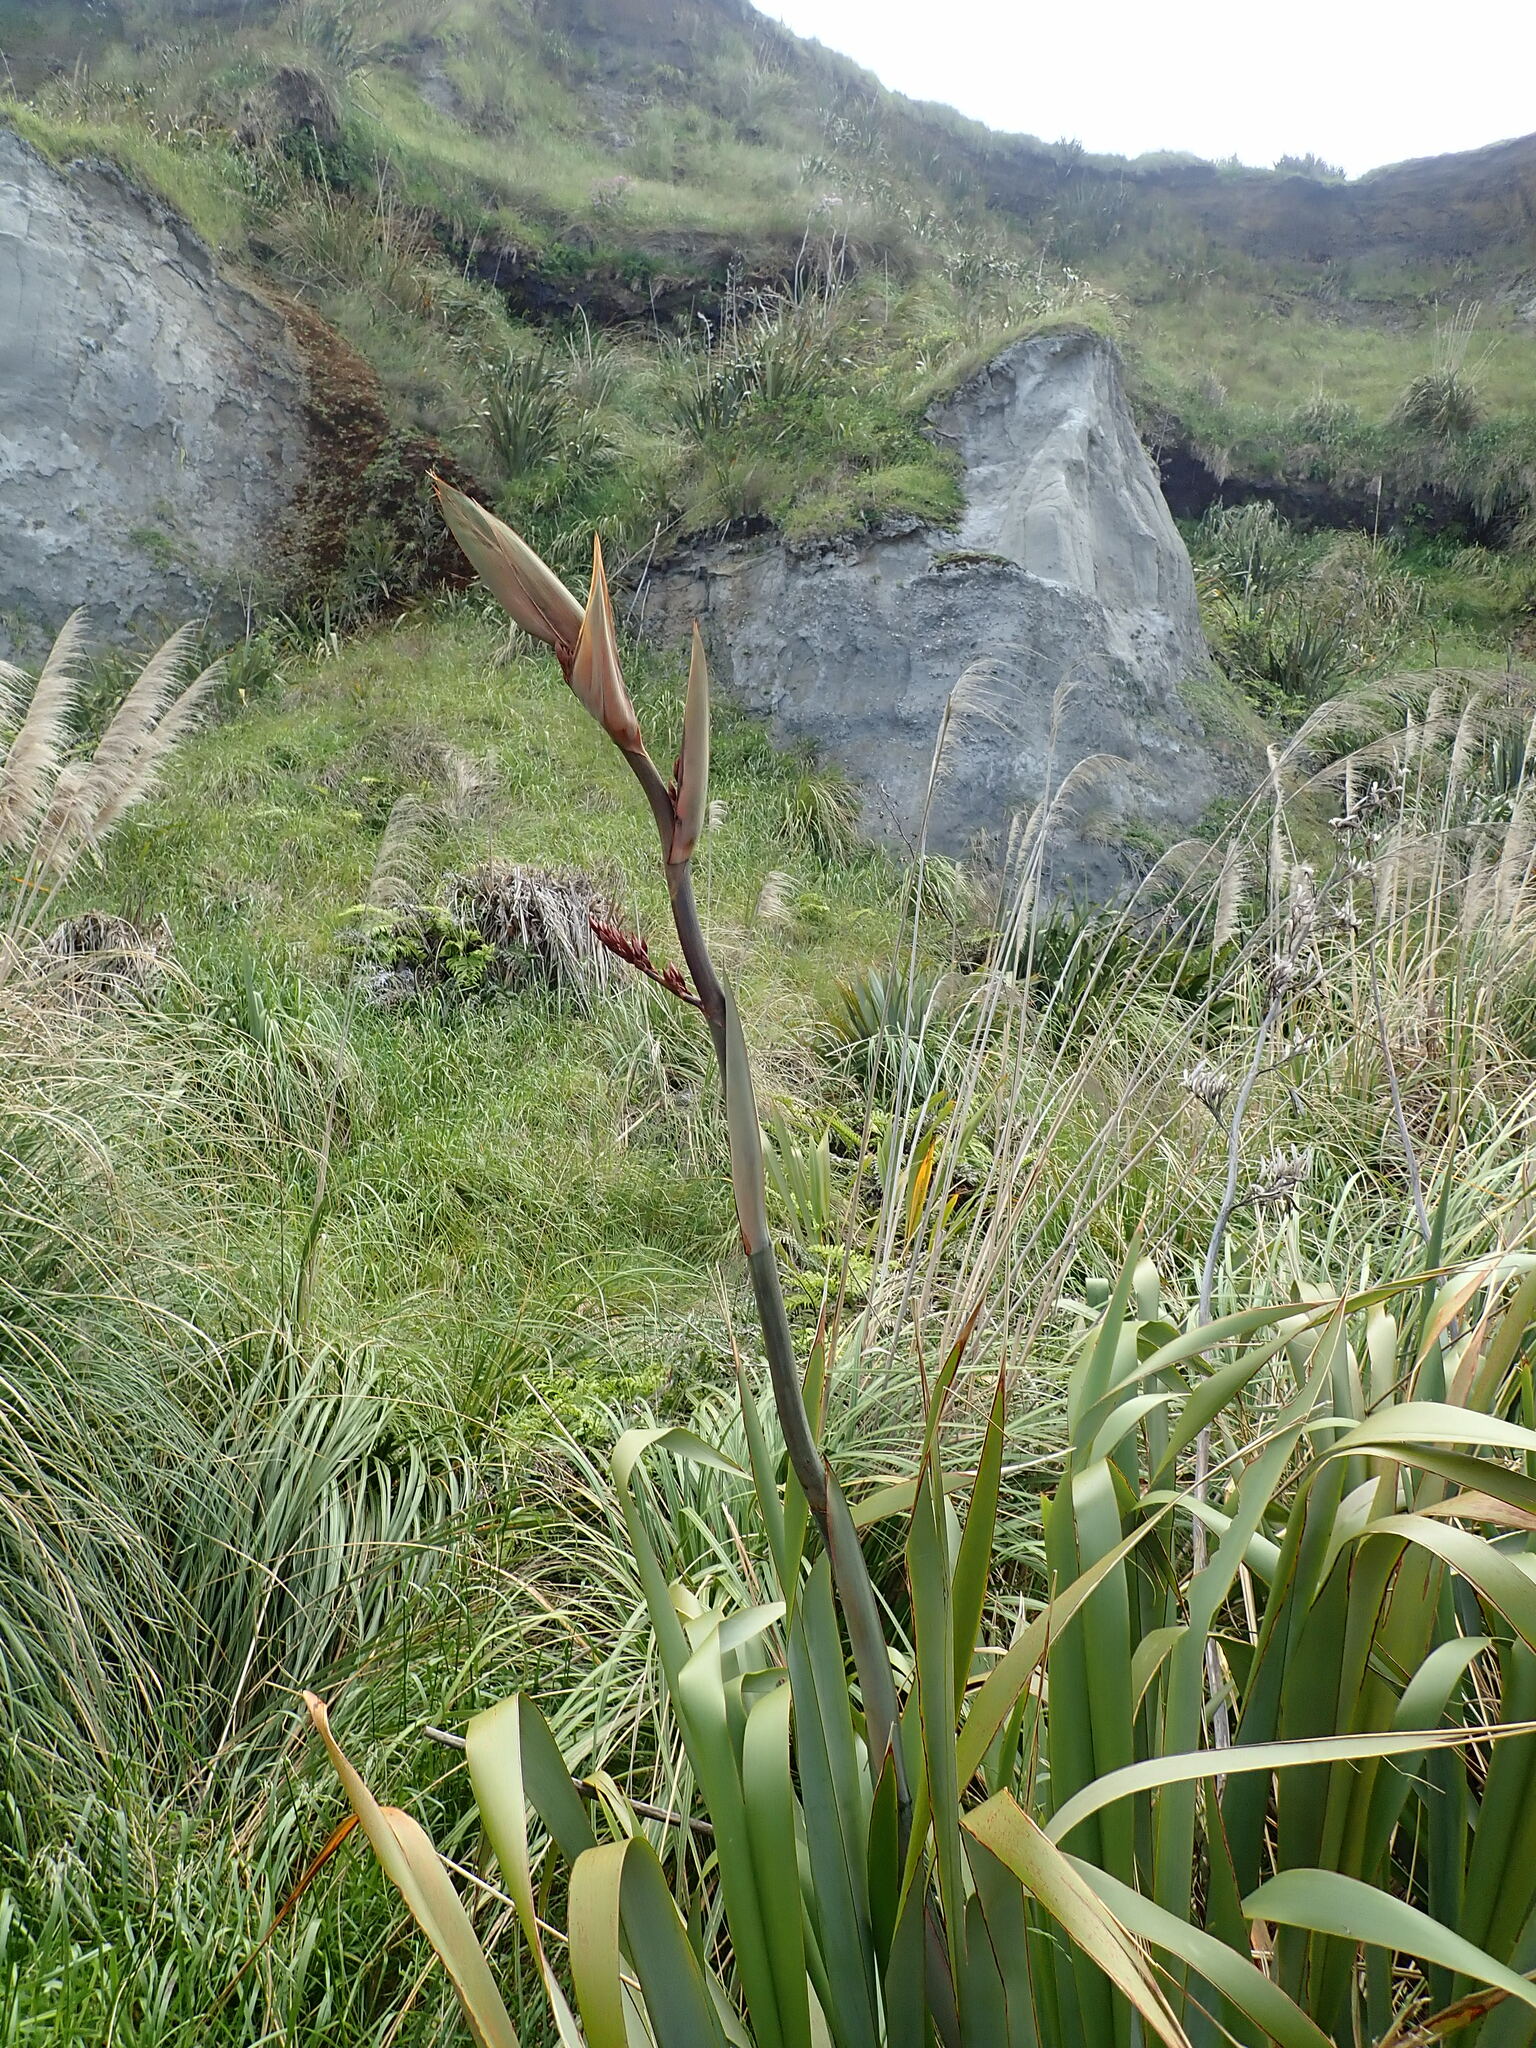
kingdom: Plantae
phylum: Tracheophyta
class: Liliopsida
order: Asparagales
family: Asphodelaceae
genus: Phormium
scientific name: Phormium tenax
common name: New zealand flax
